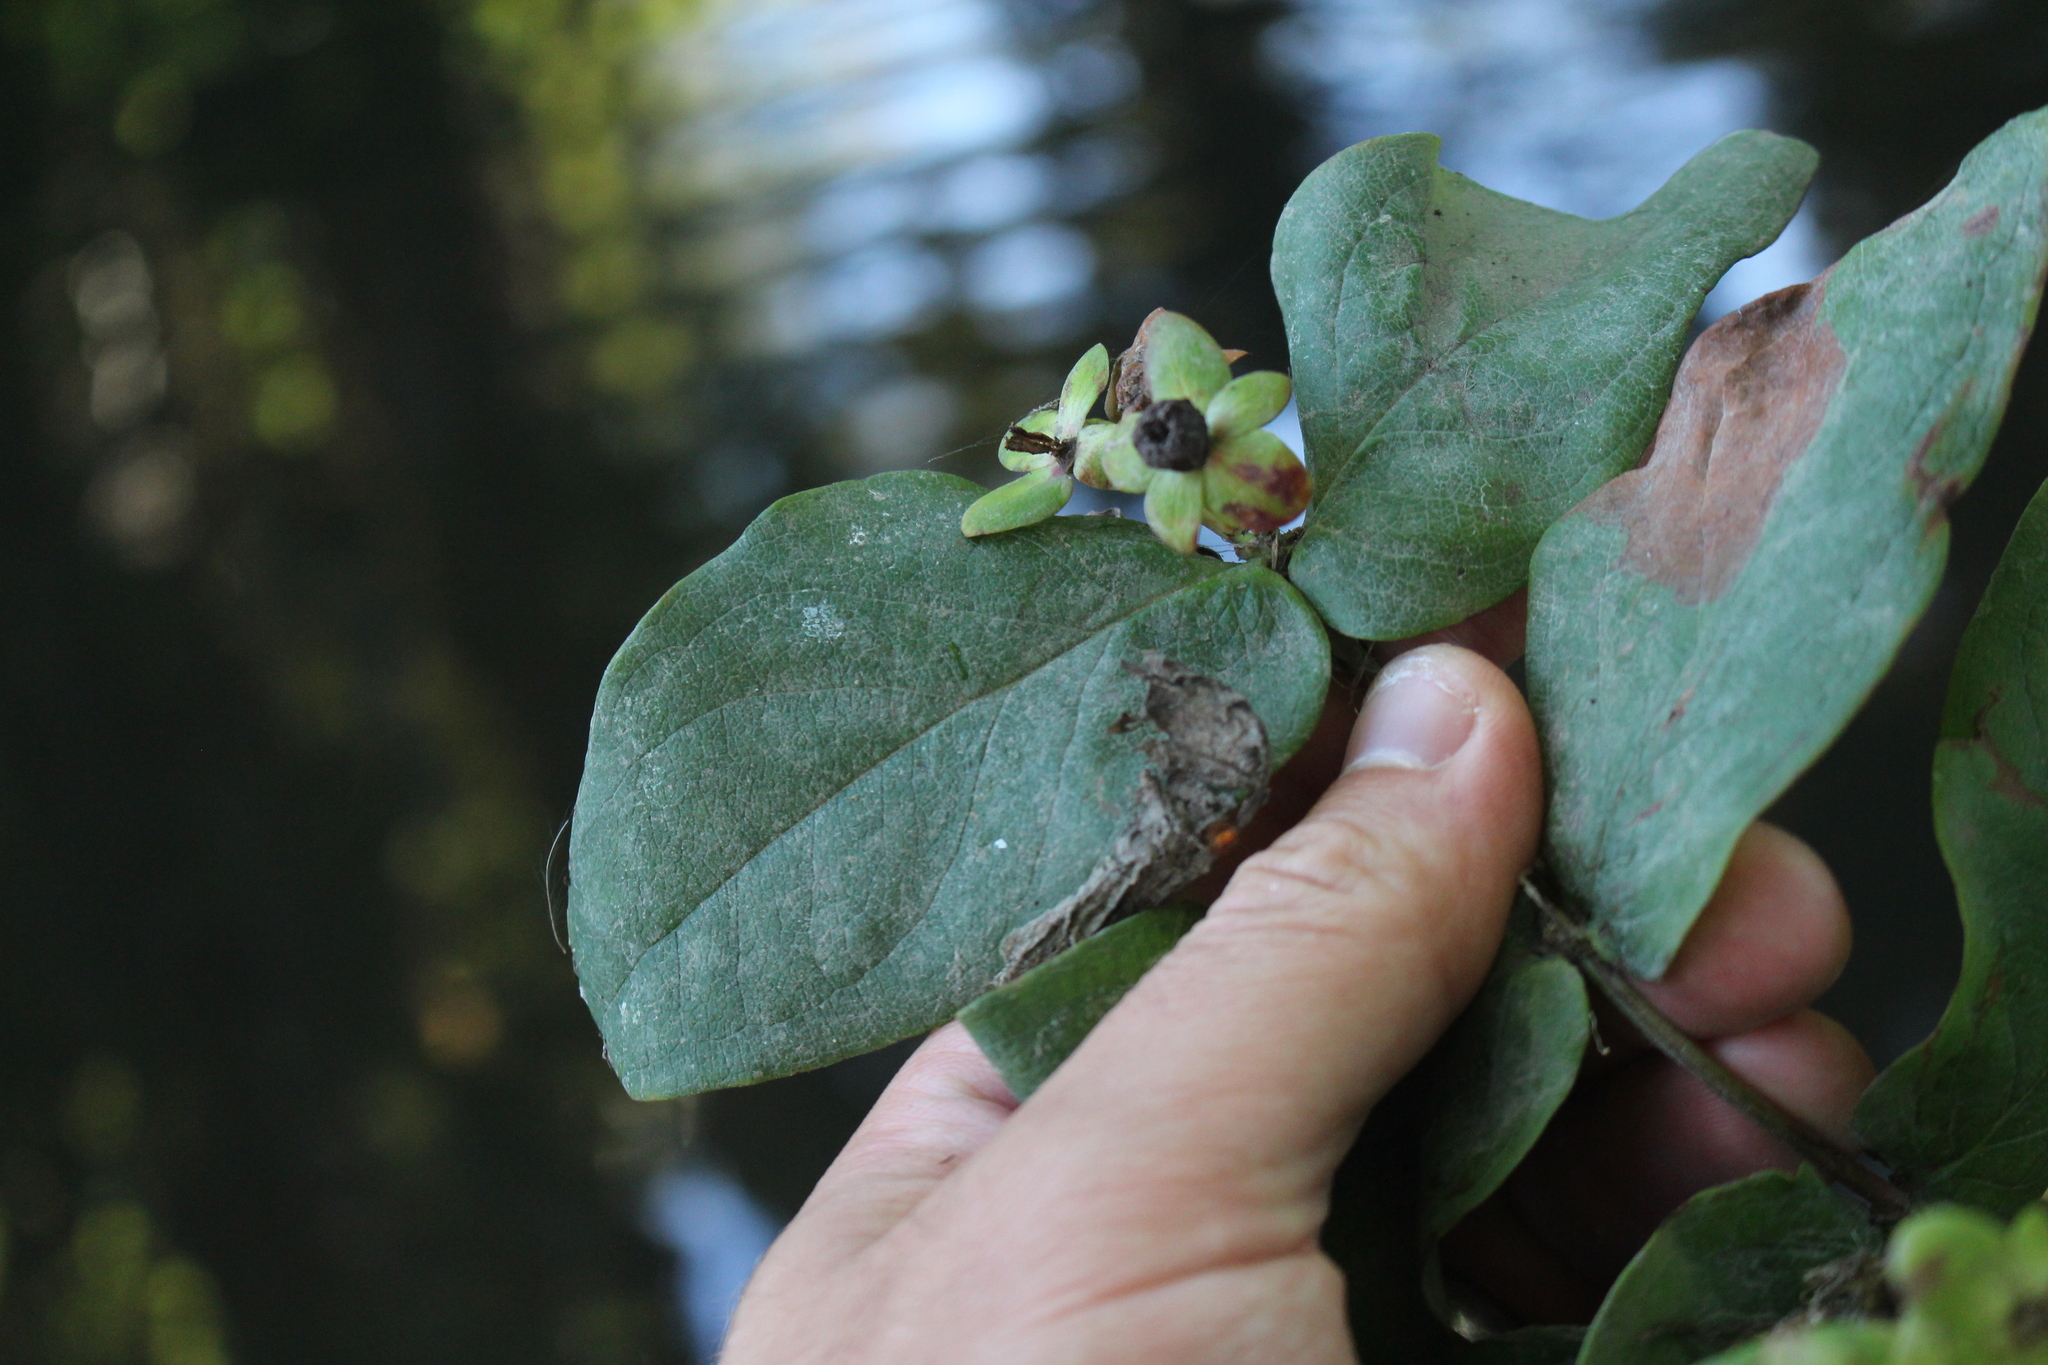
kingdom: Plantae
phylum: Tracheophyta
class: Magnoliopsida
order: Malpighiales
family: Hypericaceae
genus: Hypericum
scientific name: Hypericum androsaemum
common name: Sweet-amber
